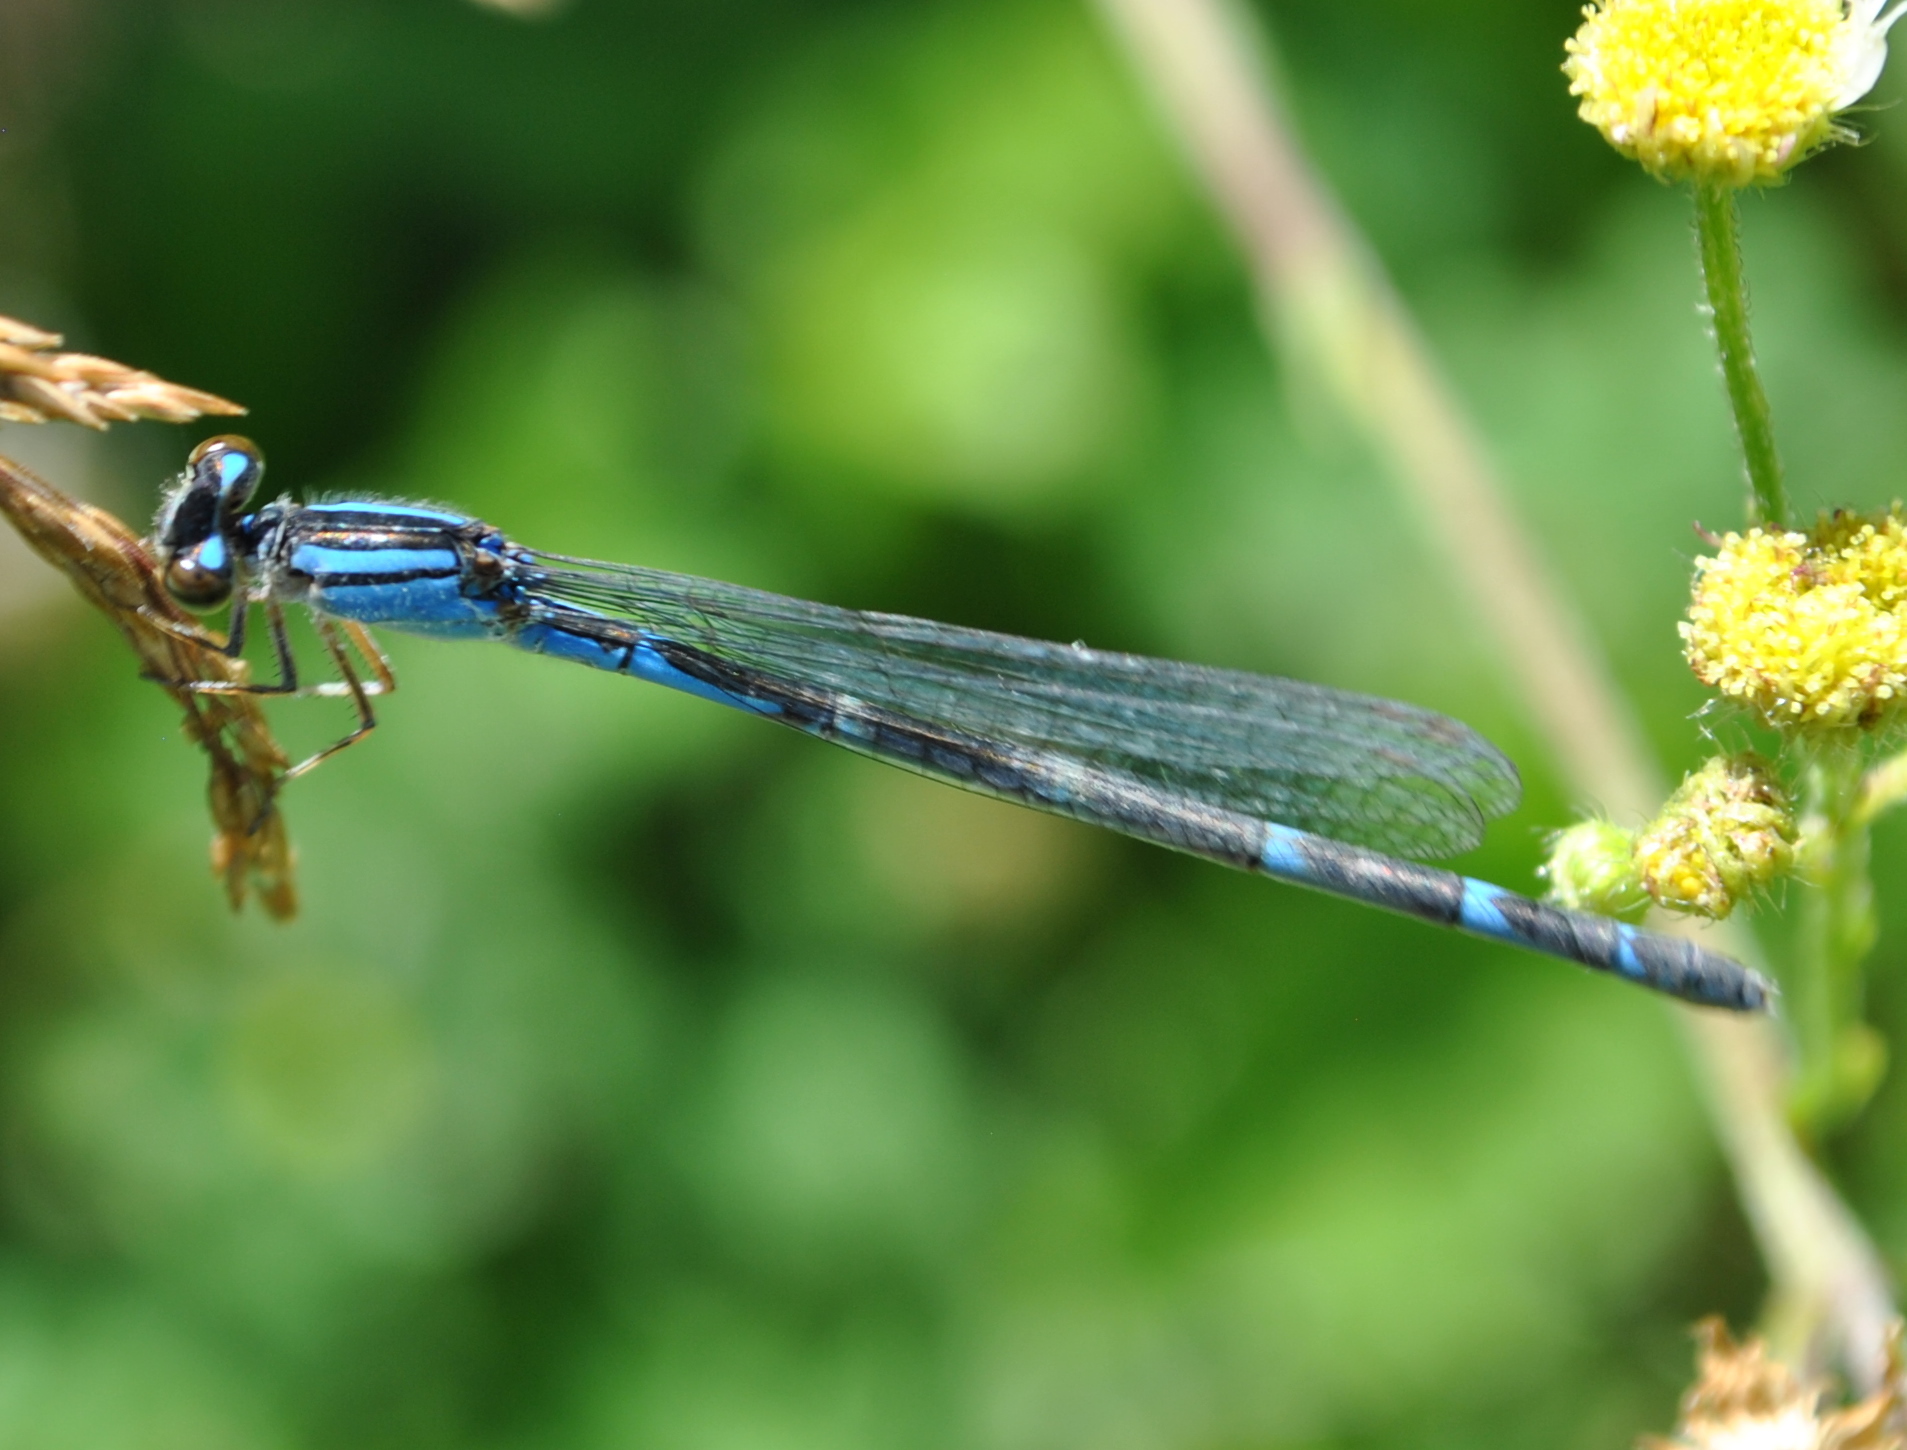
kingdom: Animalia
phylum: Arthropoda
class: Insecta
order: Odonata
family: Coenagrionidae
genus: Enallagma
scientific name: Enallagma
